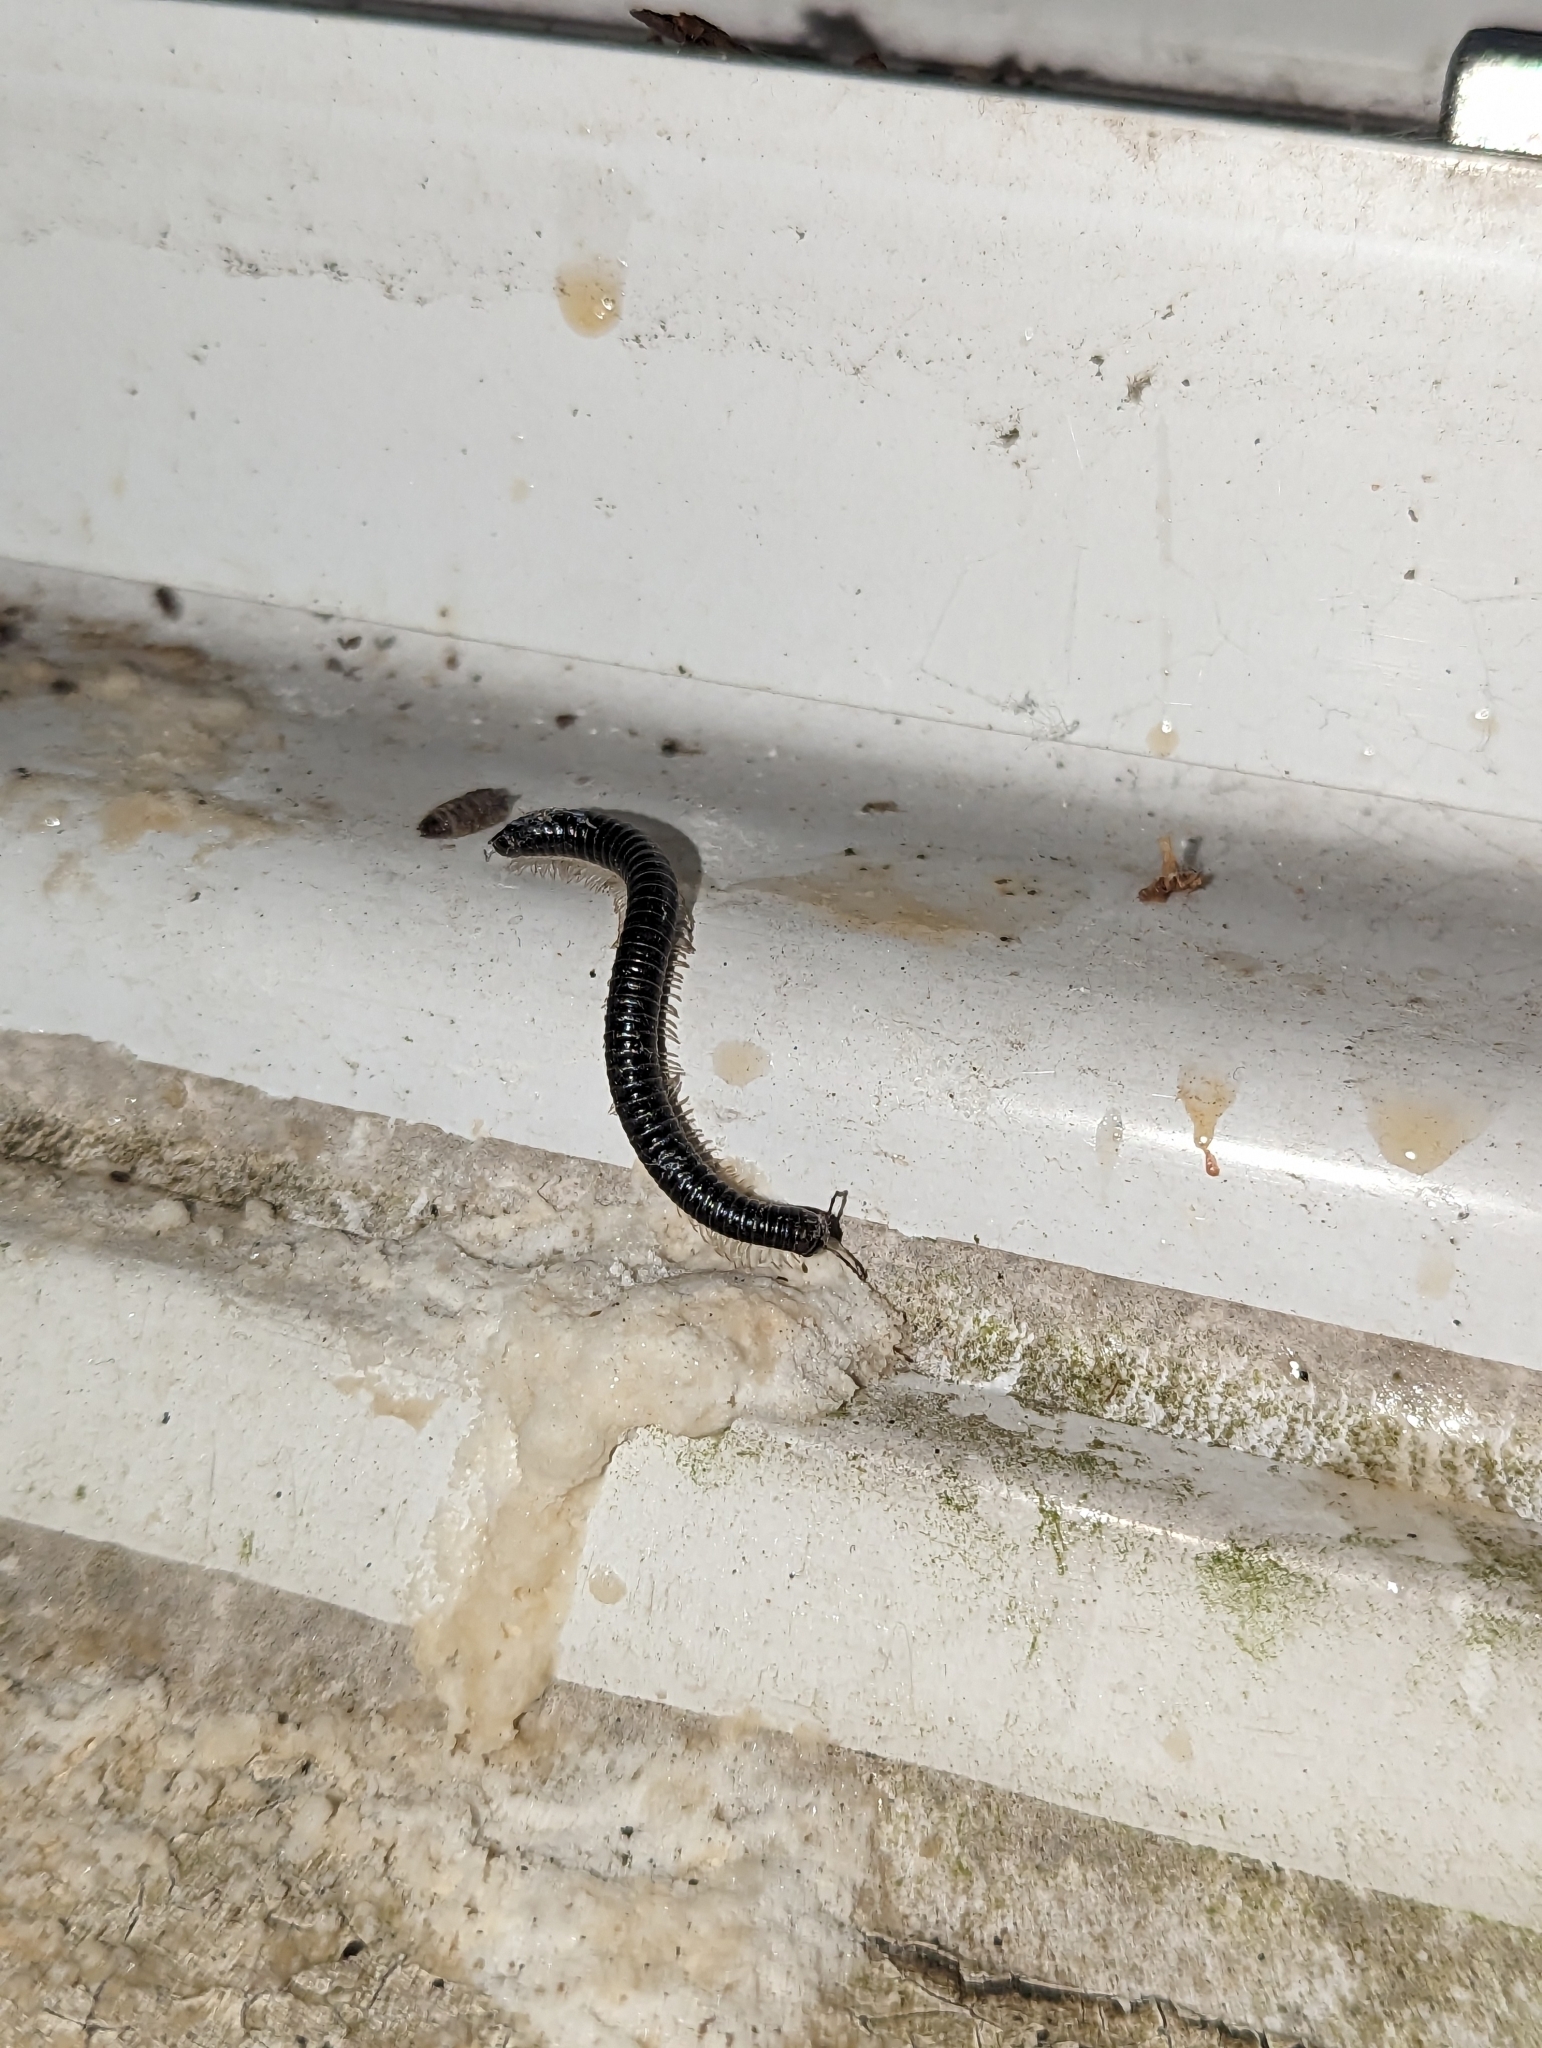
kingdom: Animalia
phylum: Arthropoda
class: Diplopoda
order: Julida
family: Julidae
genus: Tachypodoiulus
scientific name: Tachypodoiulus niger
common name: White-legged snake millipede
